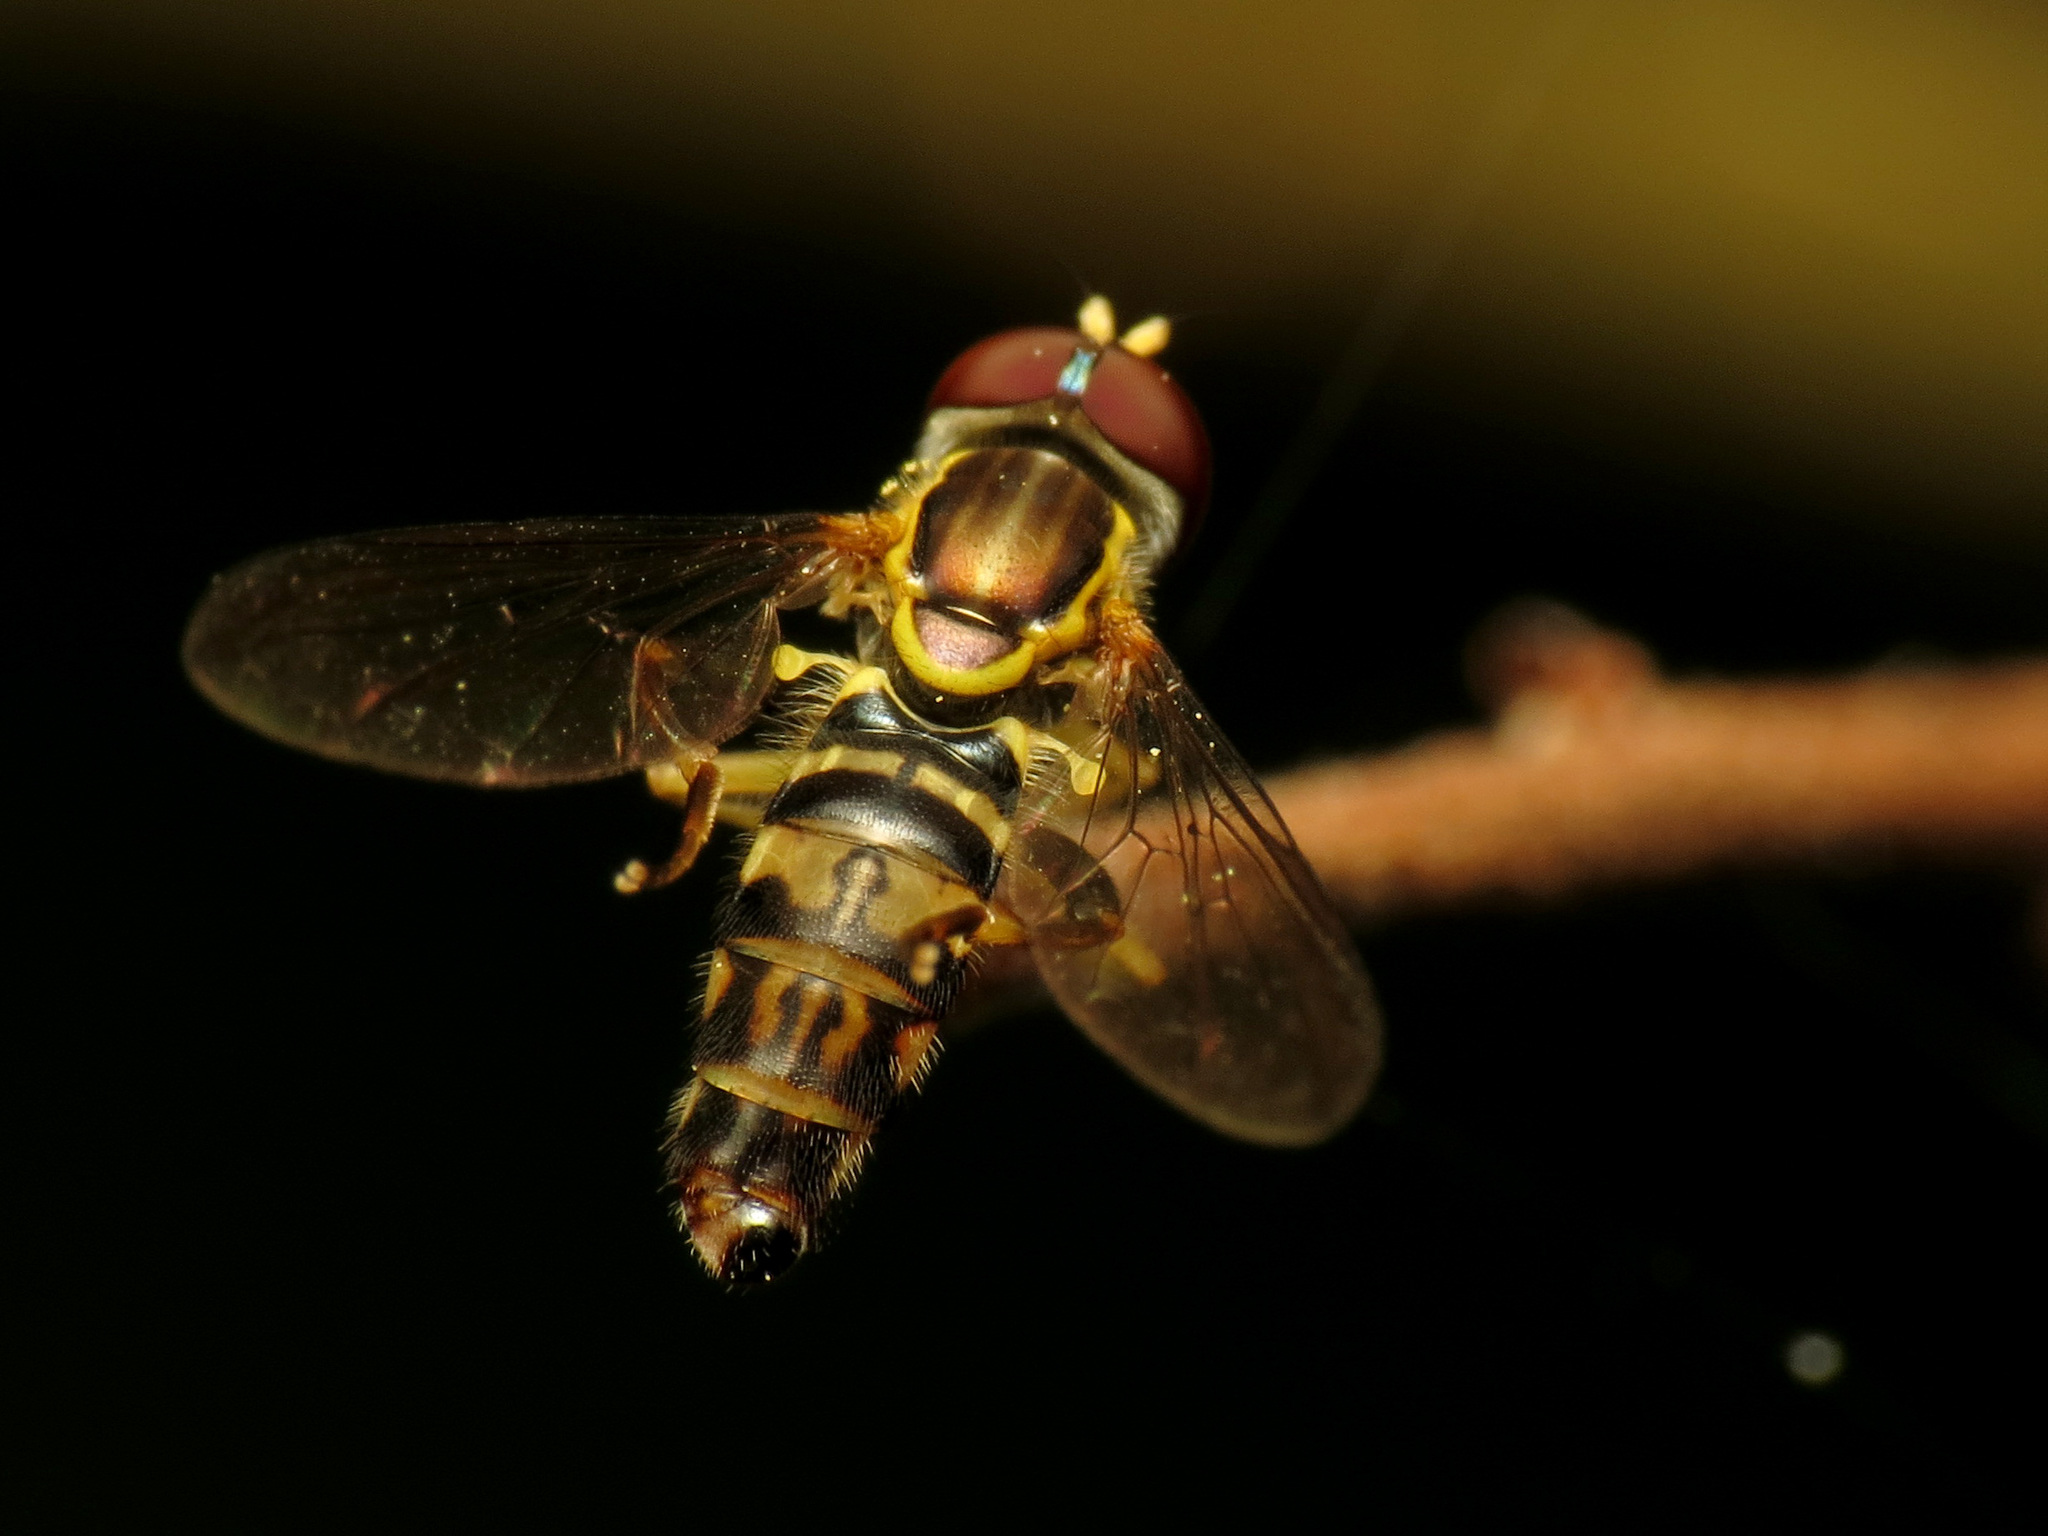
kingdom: Animalia
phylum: Arthropoda
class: Insecta
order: Diptera
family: Syrphidae
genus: Toxomerus
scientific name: Toxomerus geminatus
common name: Eastern calligrapher
